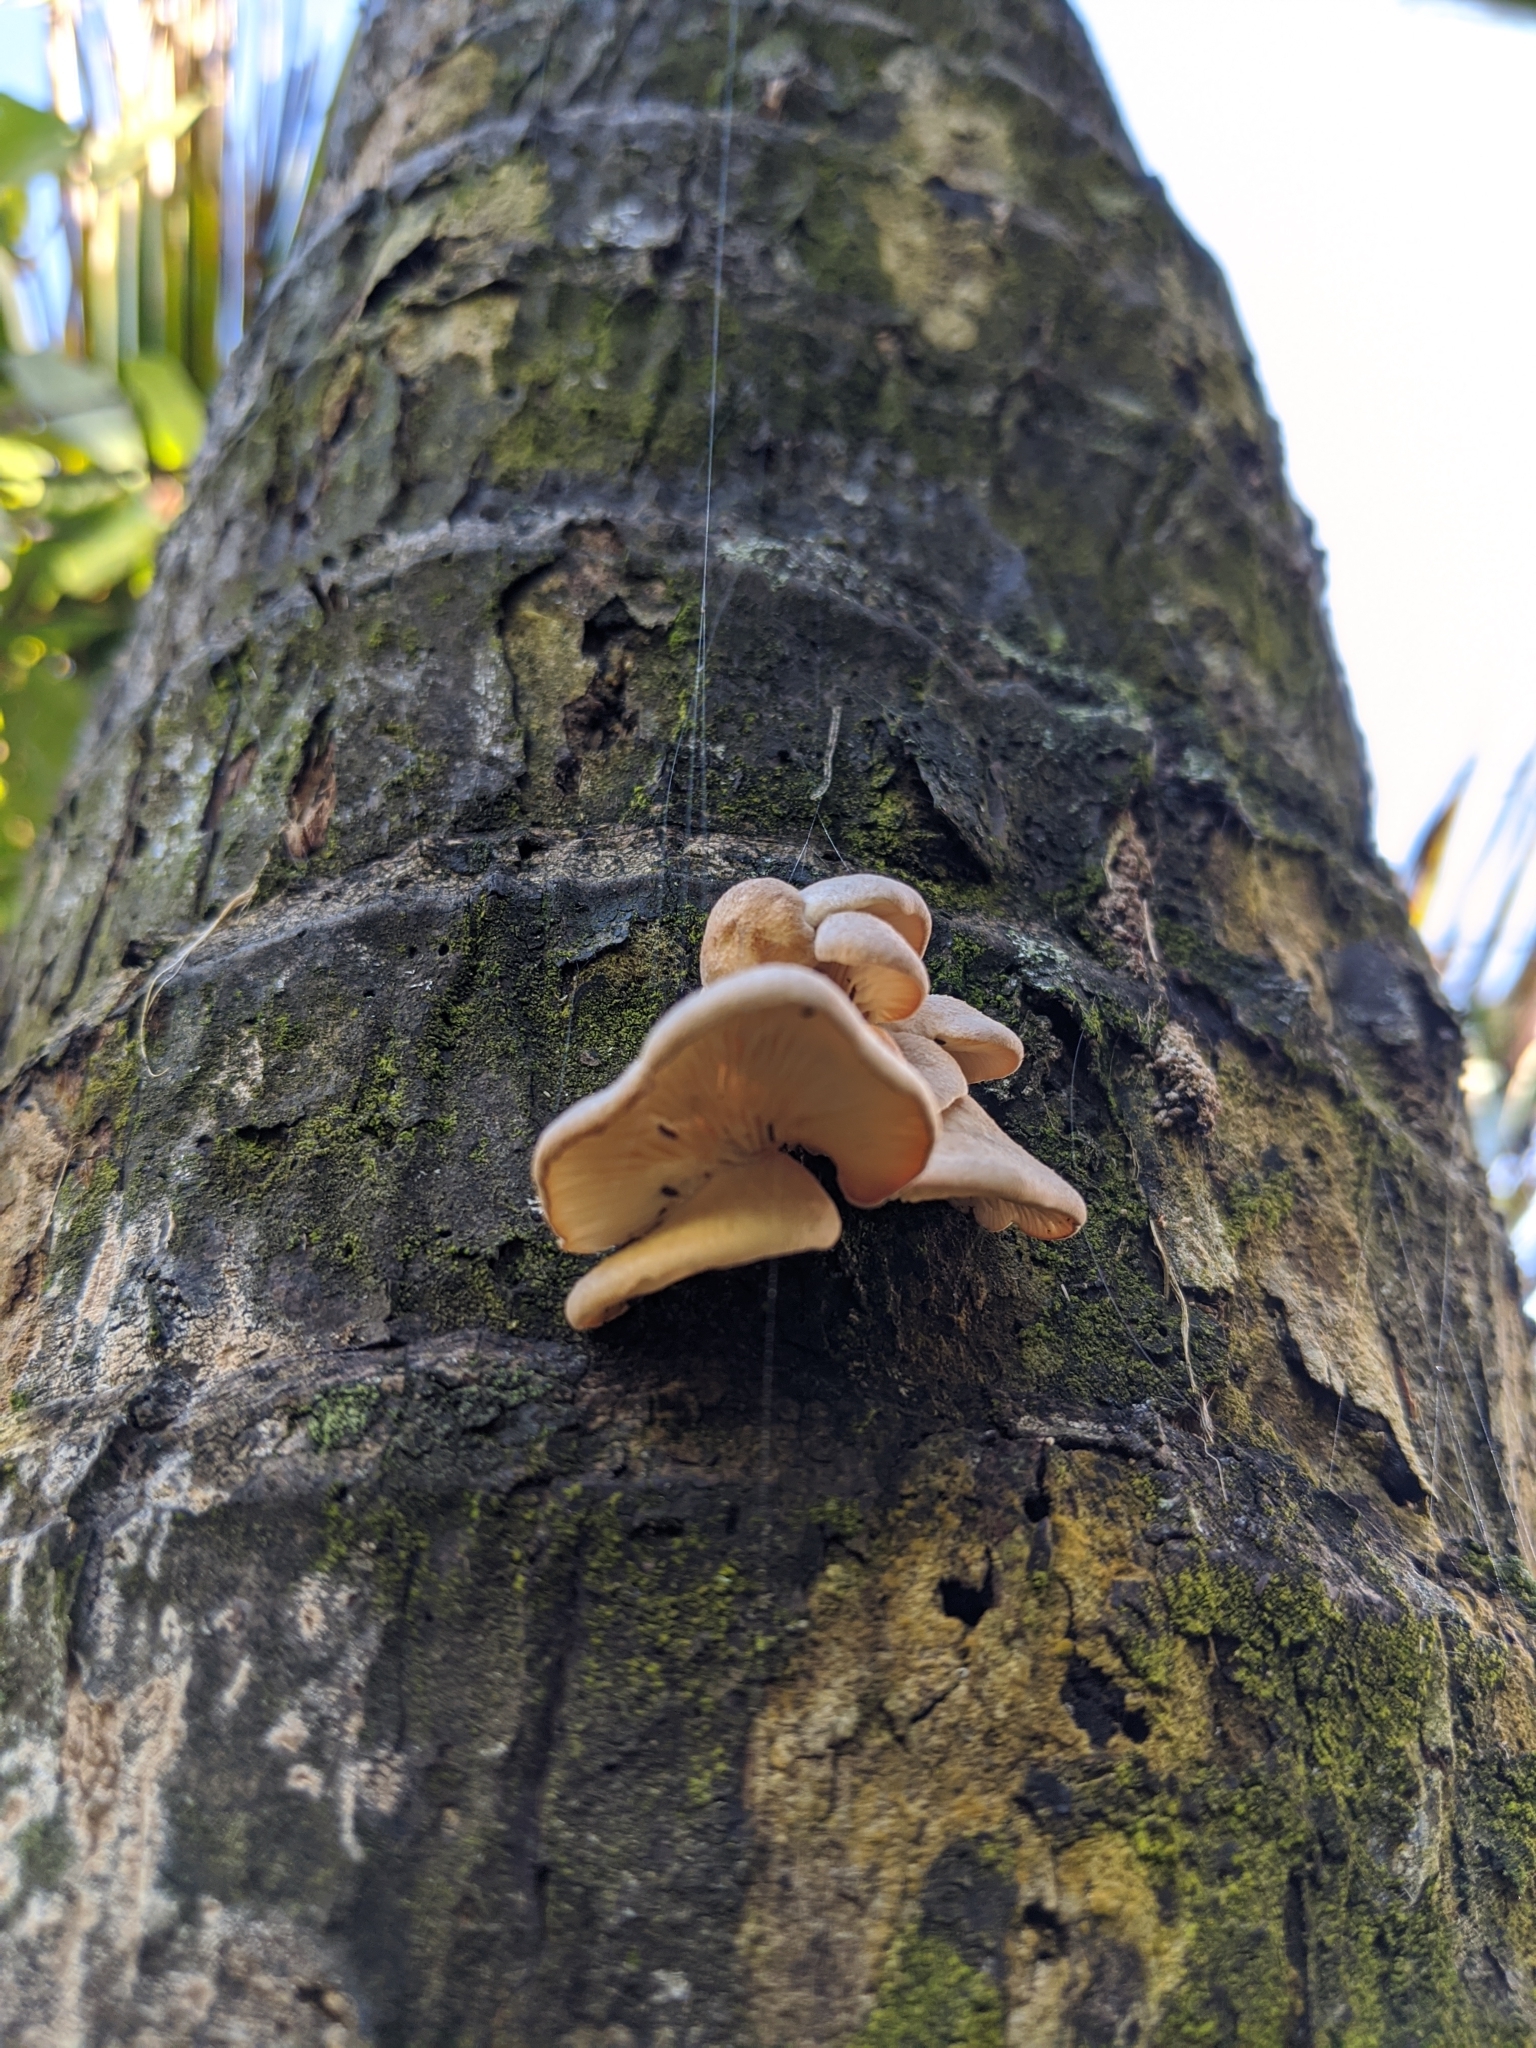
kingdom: Fungi
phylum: Basidiomycota
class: Agaricomycetes
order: Agaricales
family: Pleurotaceae
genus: Pleurotus
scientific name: Pleurotus parsonsiae
